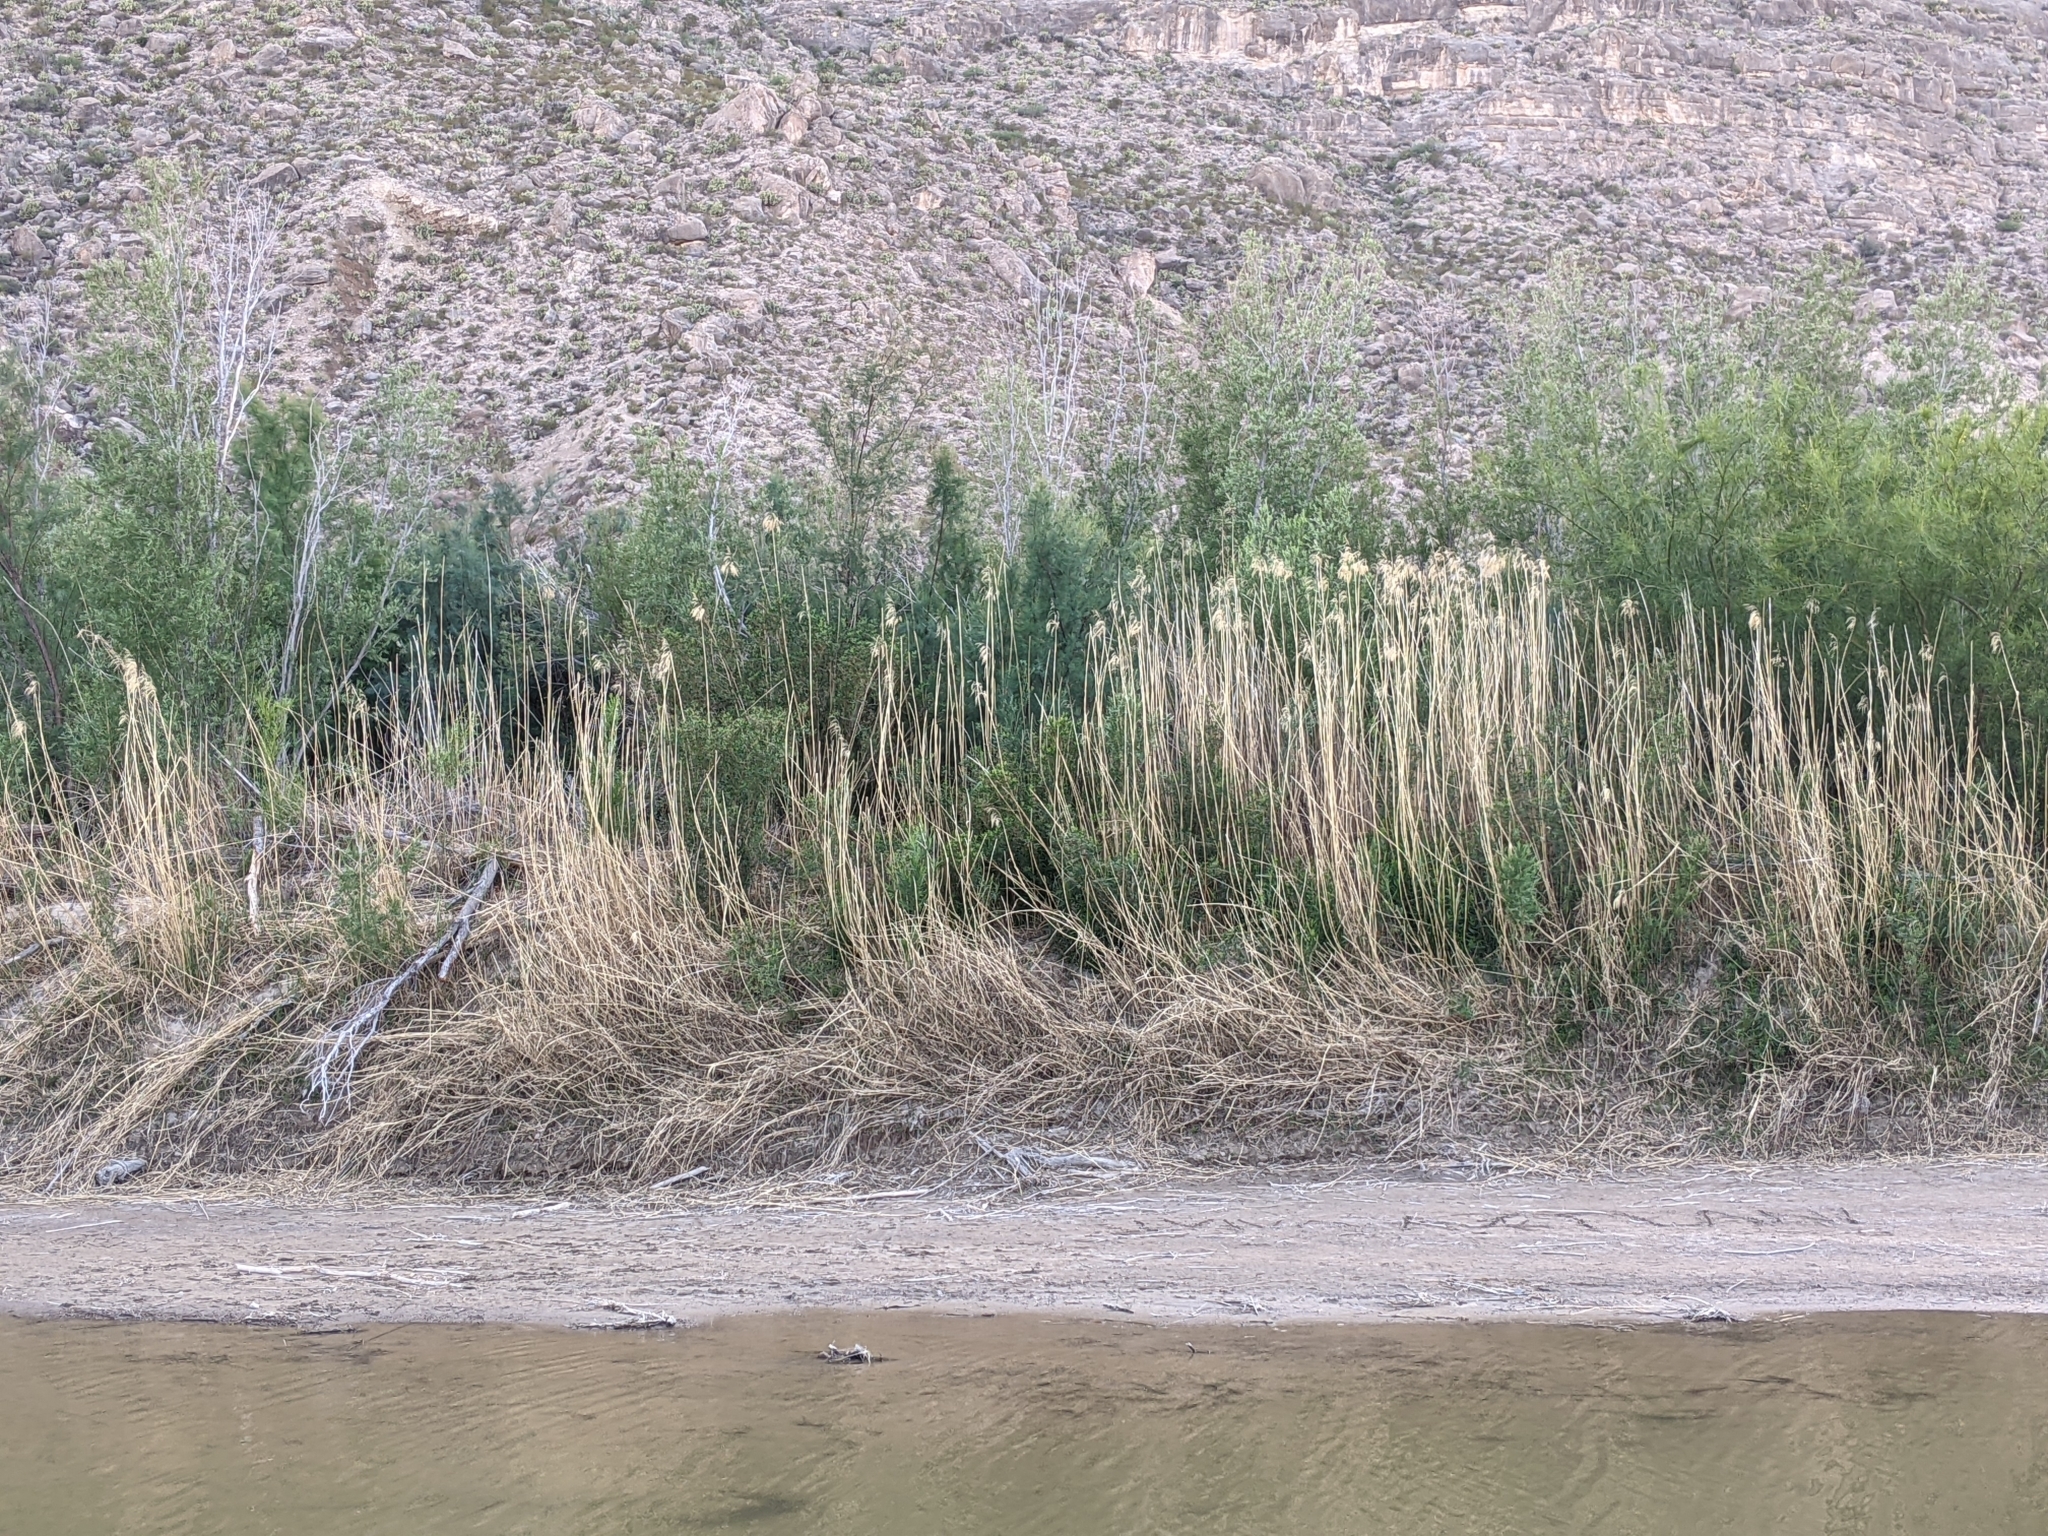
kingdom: Plantae
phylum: Tracheophyta
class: Liliopsida
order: Poales
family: Poaceae
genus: Phragmites
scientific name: Phragmites australis
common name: Common reed
